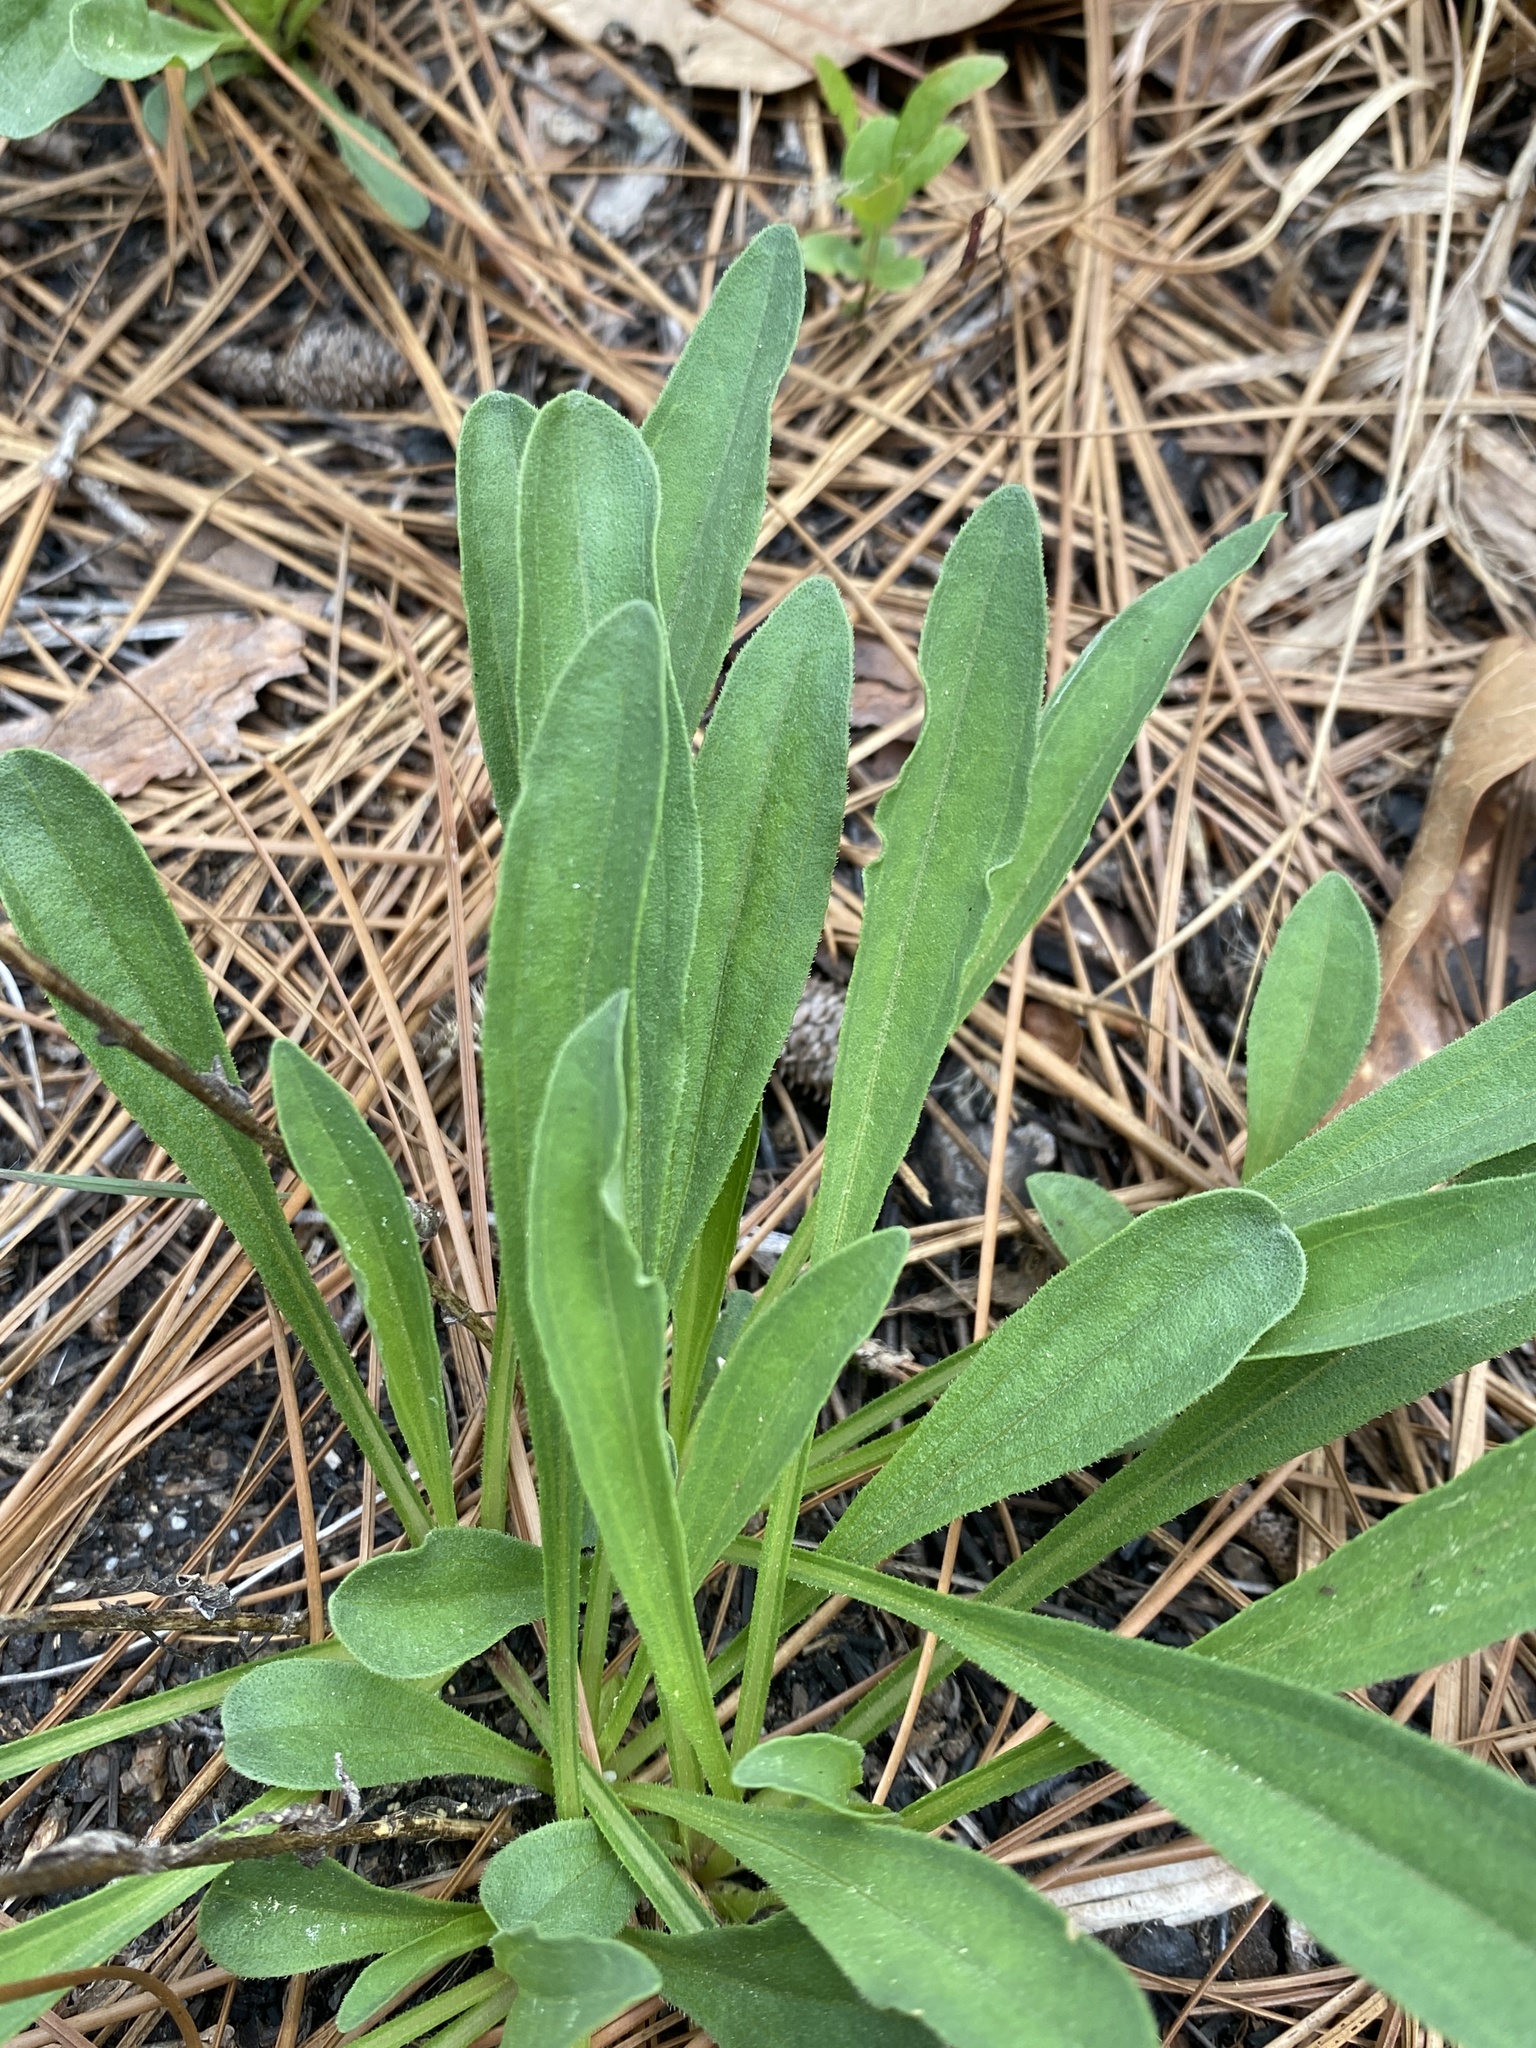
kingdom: Plantae
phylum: Tracheophyta
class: Magnoliopsida
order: Asterales
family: Asteraceae
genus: Carphephorus
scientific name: Carphephorus bellidifolius
